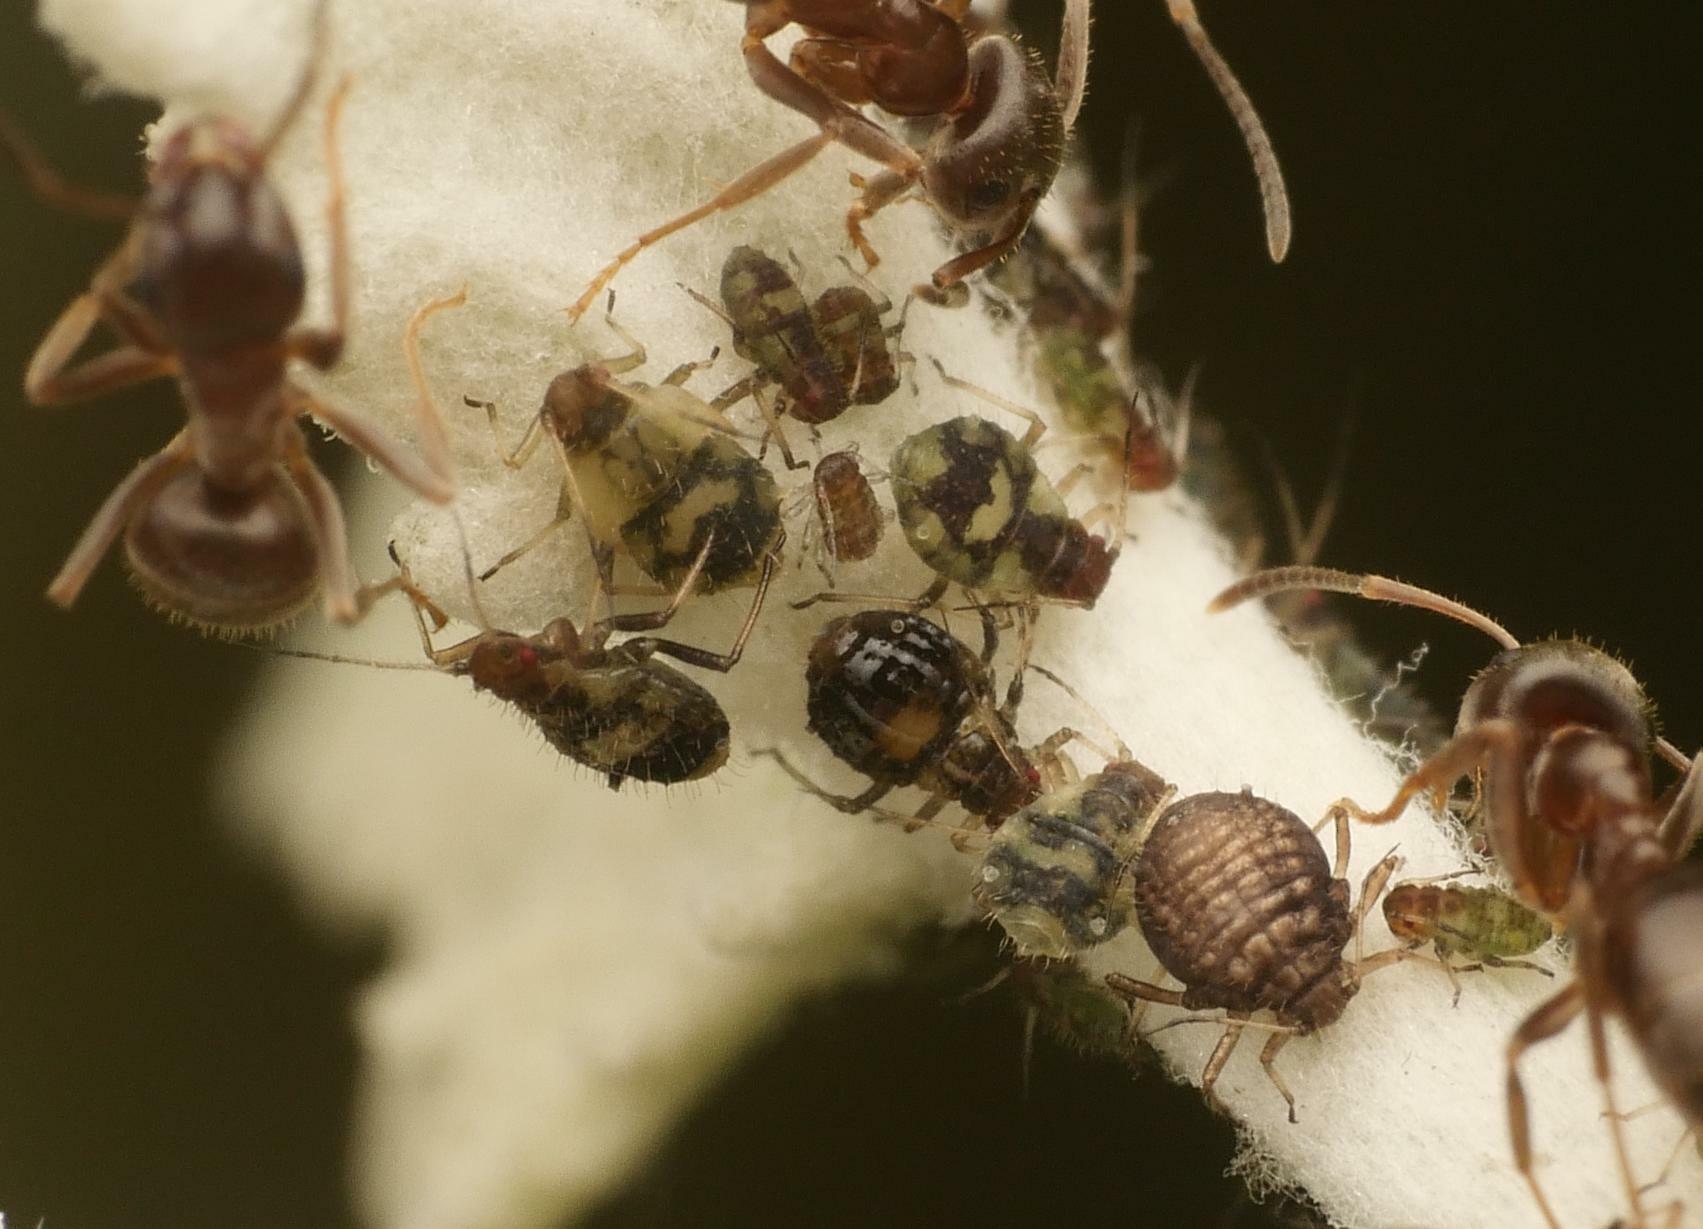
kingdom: Animalia
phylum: Arthropoda
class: Insecta
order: Hemiptera
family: Aphididae
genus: Chaitophorus
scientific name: Chaitophorus populeti
